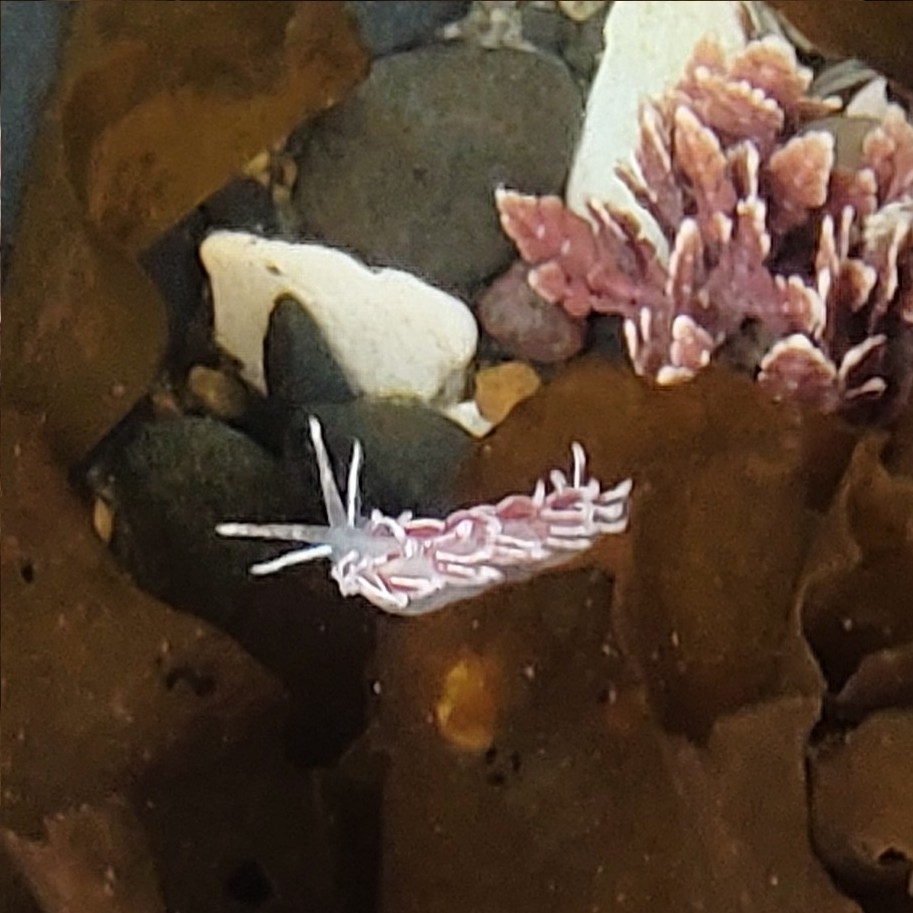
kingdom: Animalia
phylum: Mollusca
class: Gastropoda
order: Nudibranchia
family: Trinchesiidae
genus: Catriona
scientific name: Catriona columbiana
